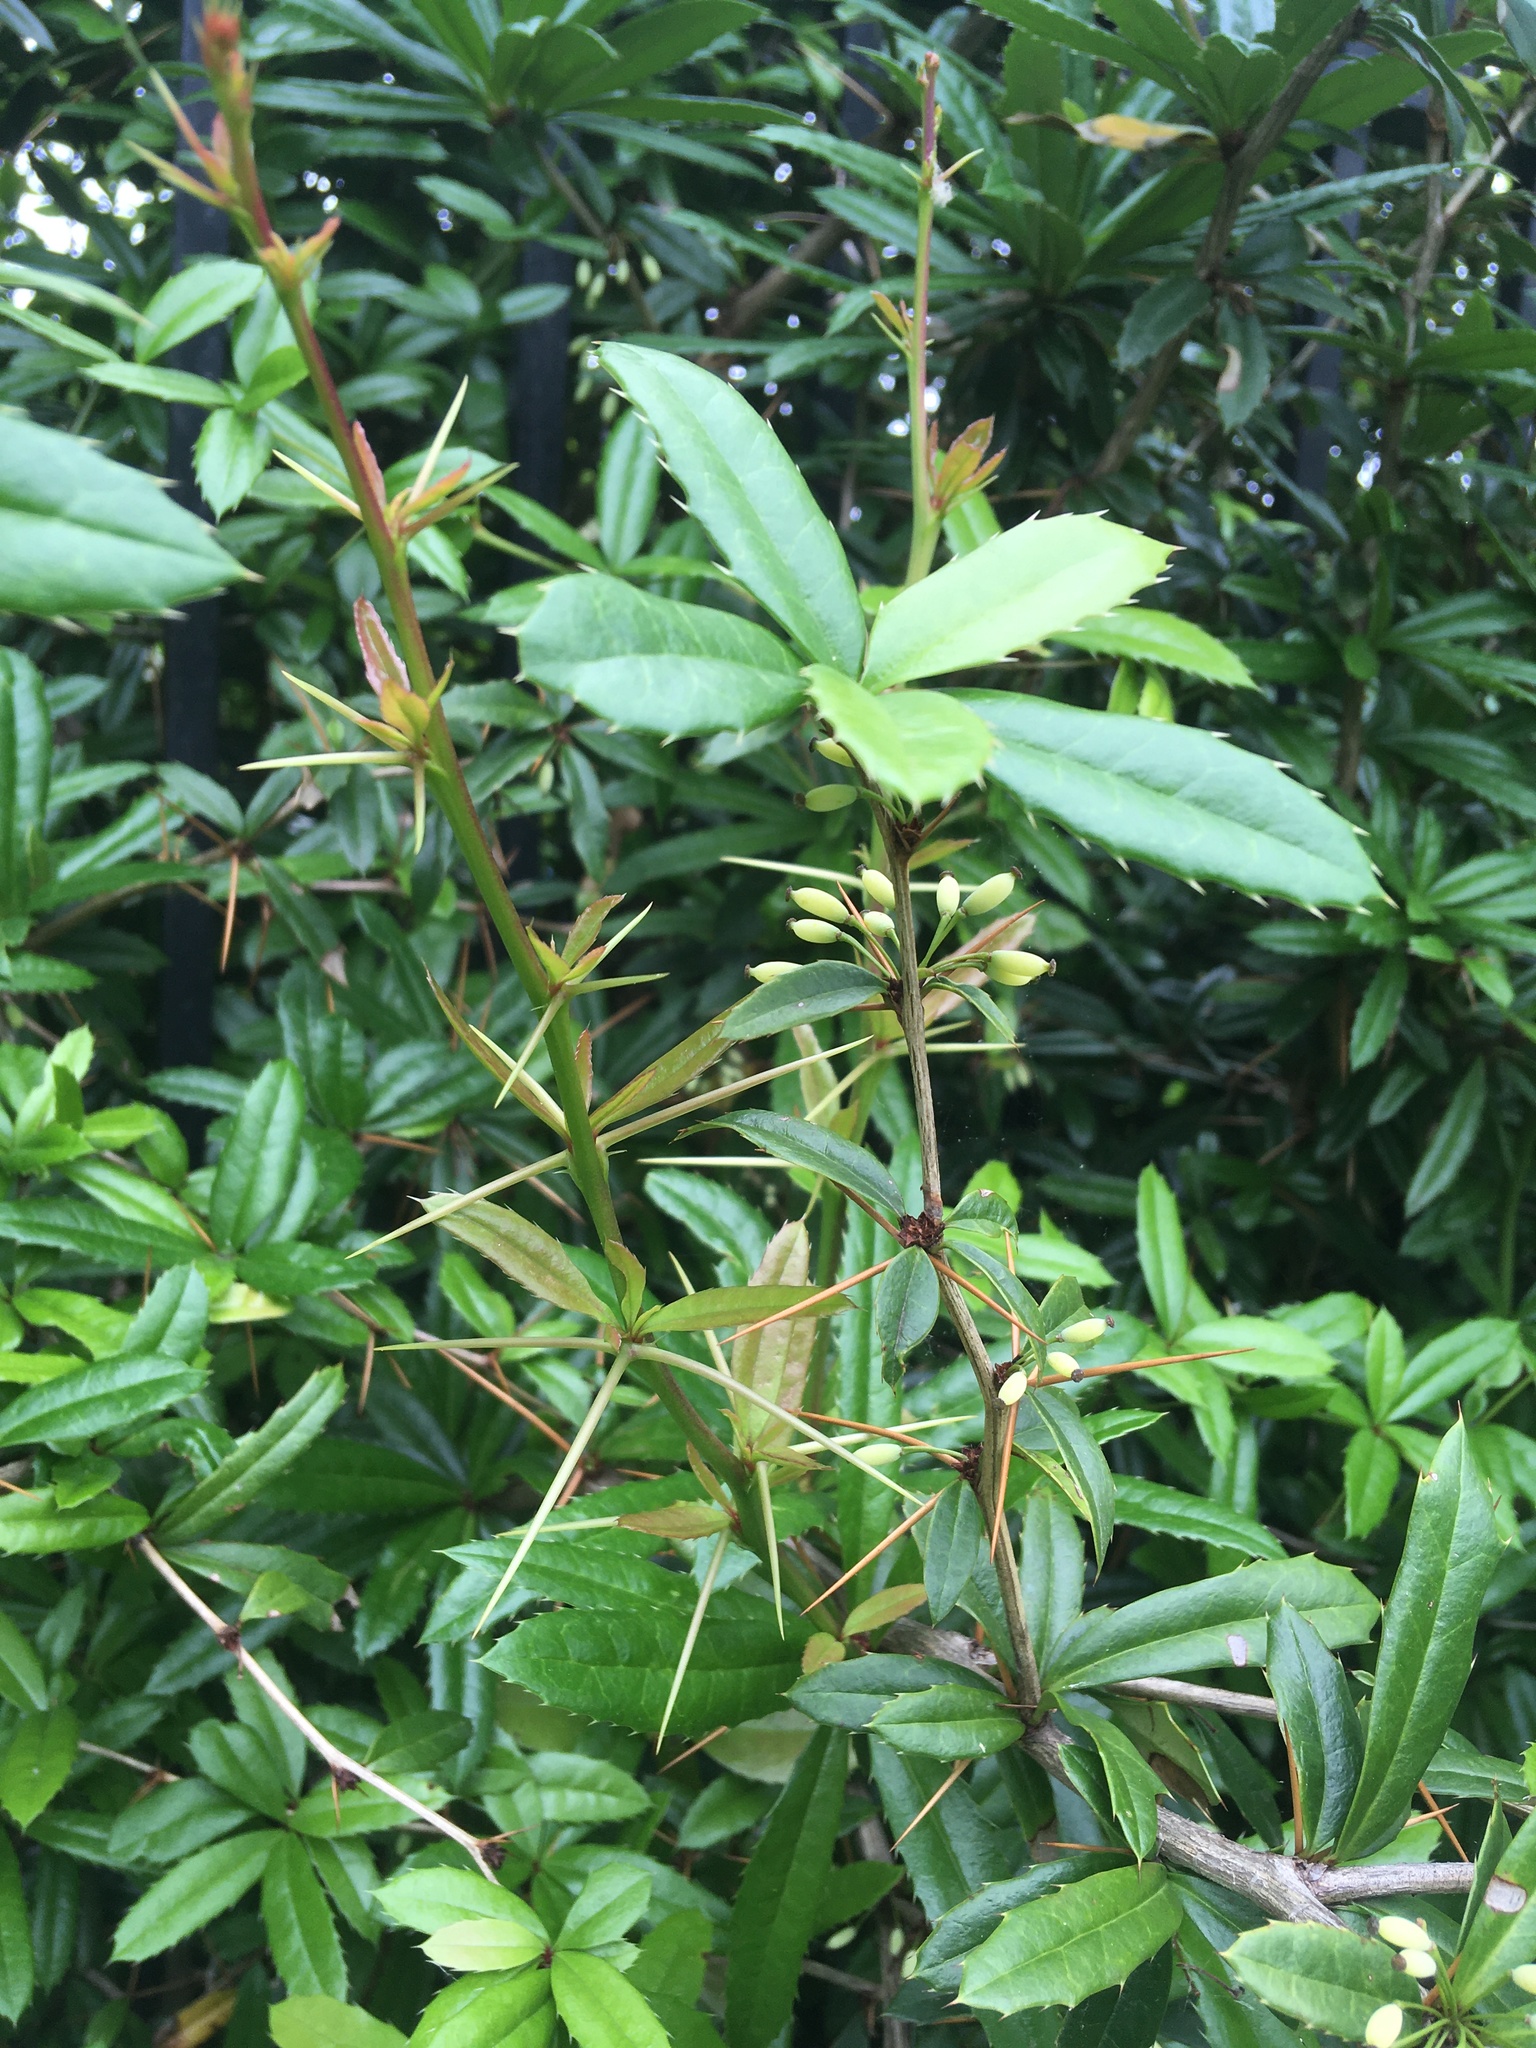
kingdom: Plantae
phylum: Tracheophyta
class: Magnoliopsida
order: Ranunculales
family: Berberidaceae
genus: Berberis
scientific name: Berberis julianae
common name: Wintergreen barberry
